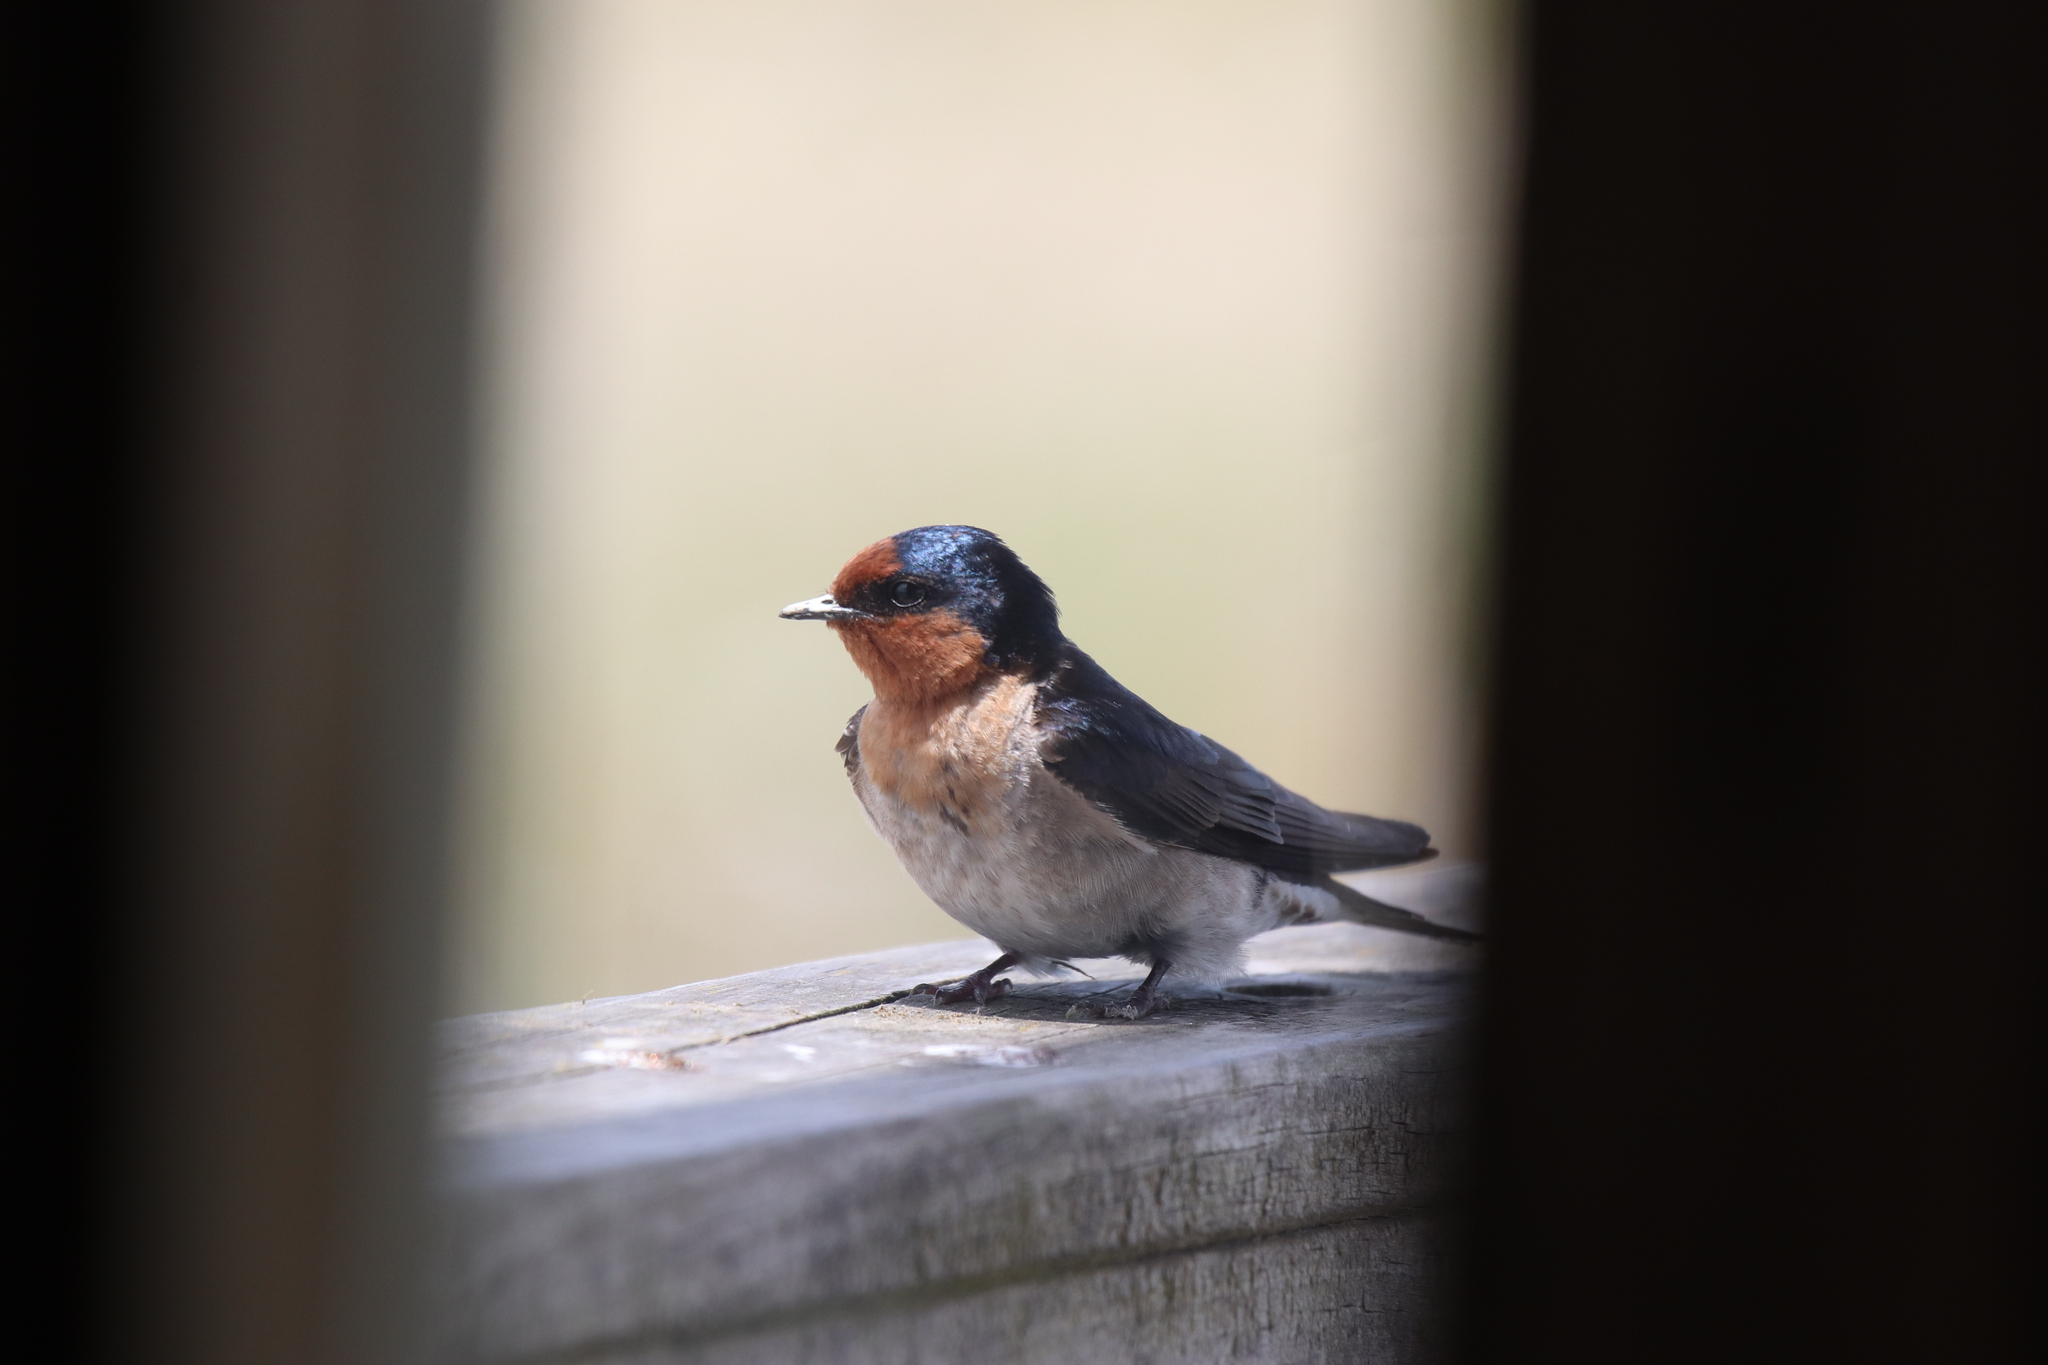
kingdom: Animalia
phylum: Chordata
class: Aves
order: Passeriformes
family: Hirundinidae
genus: Hirundo
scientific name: Hirundo neoxena
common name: Welcome swallow
